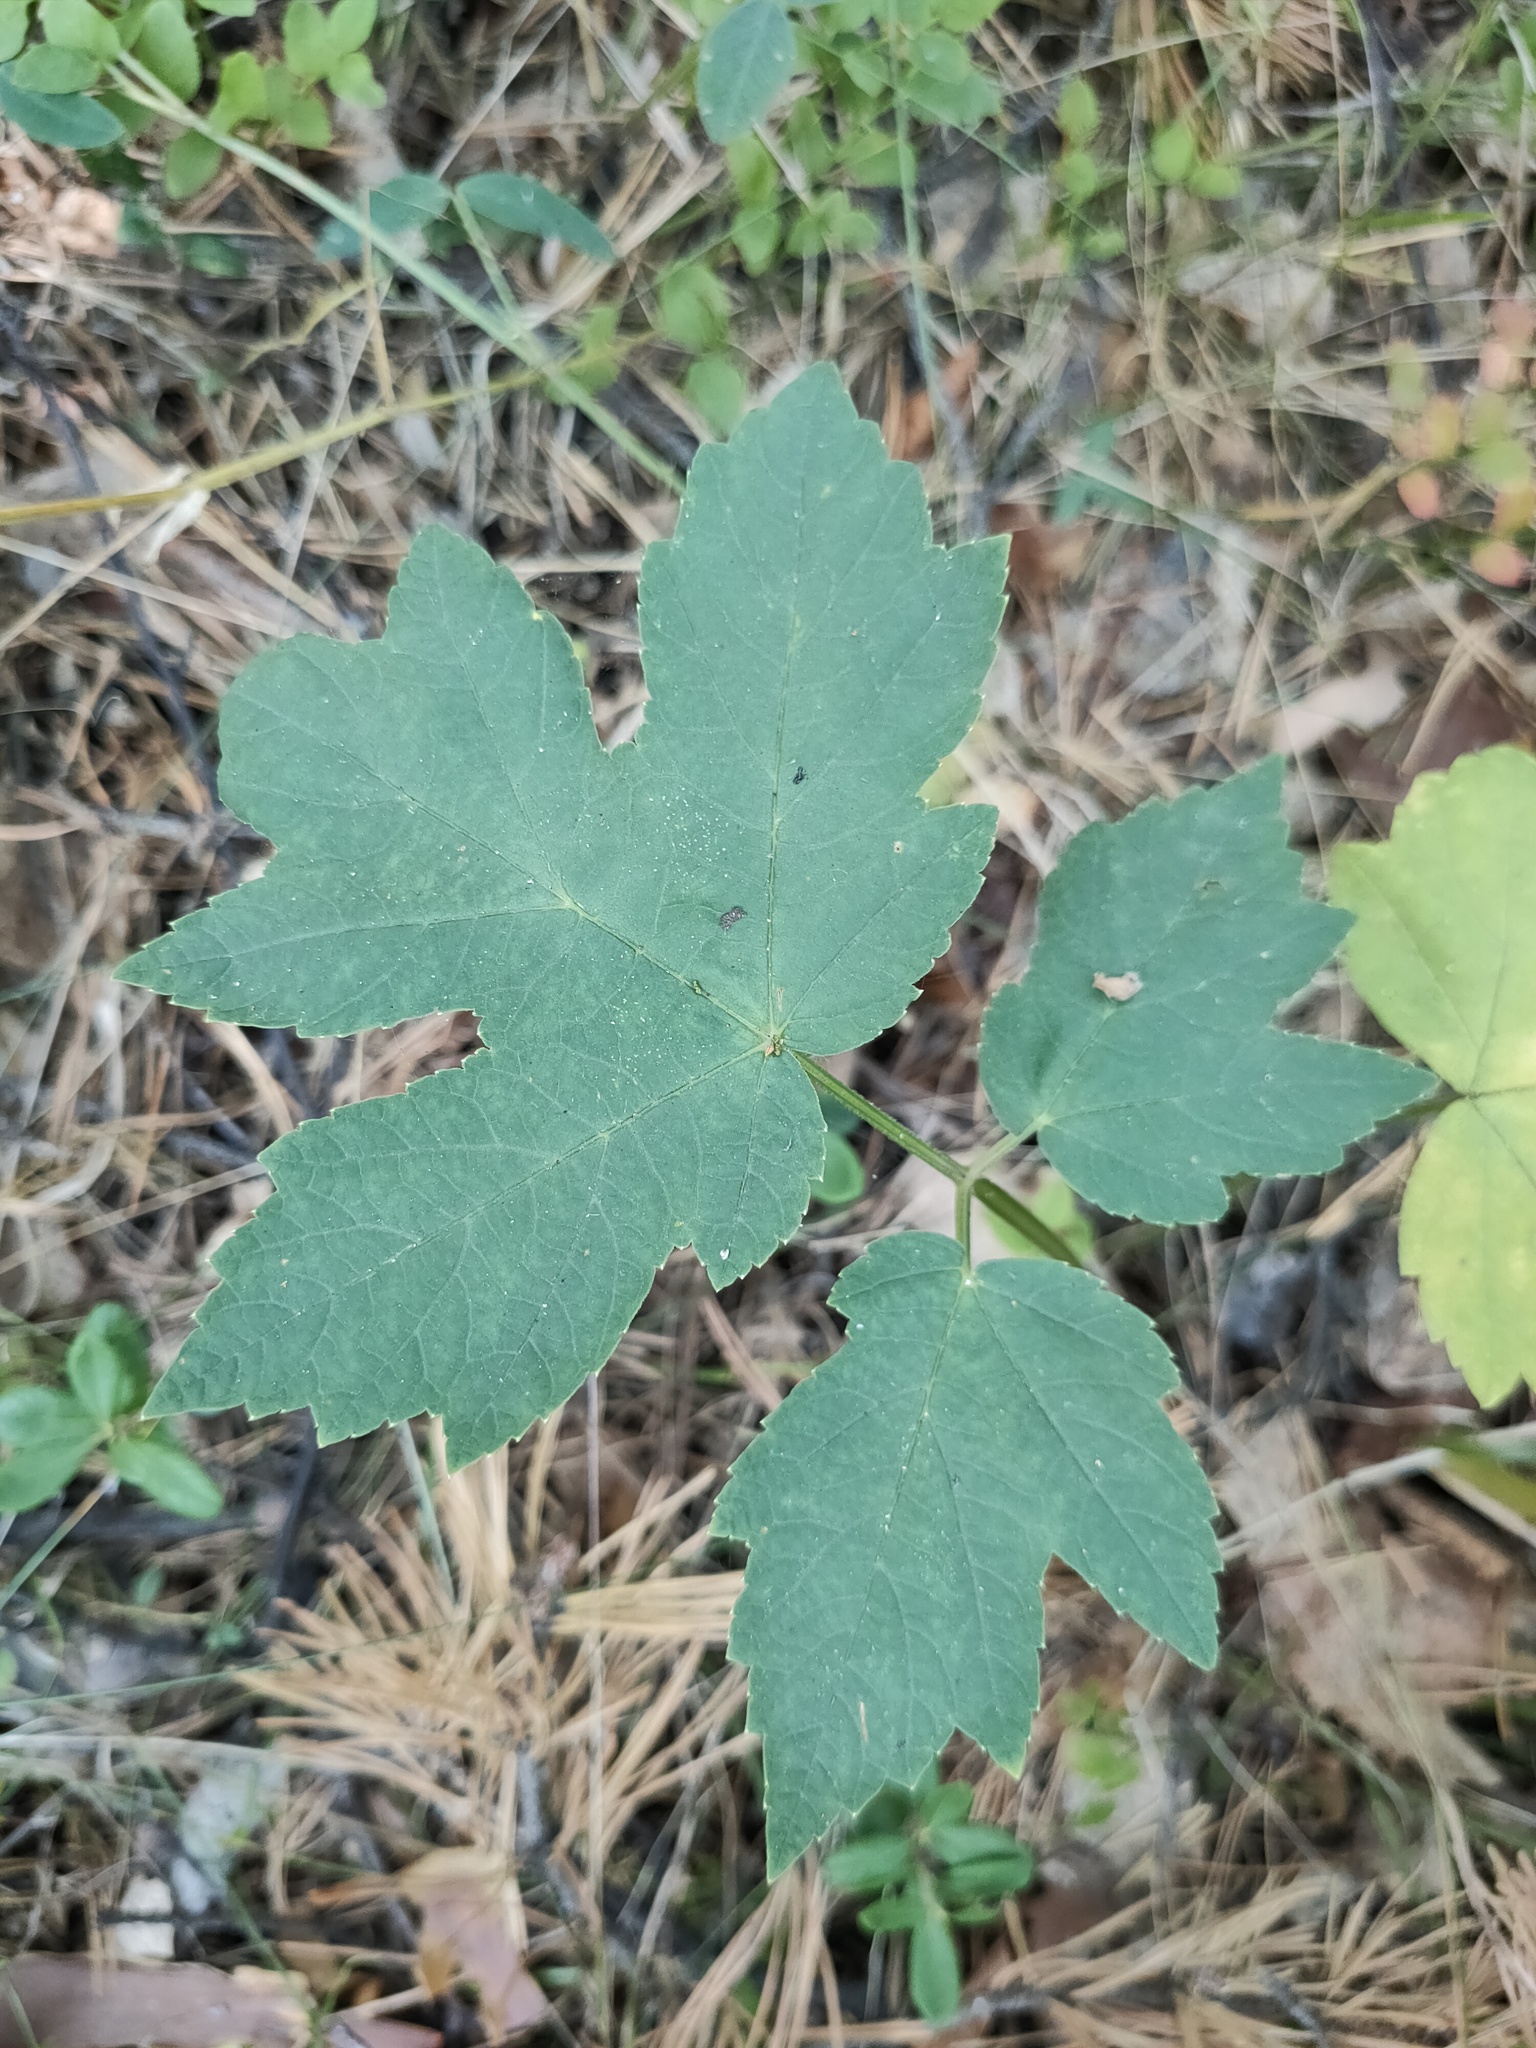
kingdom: Plantae
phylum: Tracheophyta
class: Magnoliopsida
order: Apiales
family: Apiaceae
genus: Heracleum
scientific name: Heracleum sphondylium
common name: Hogweed
